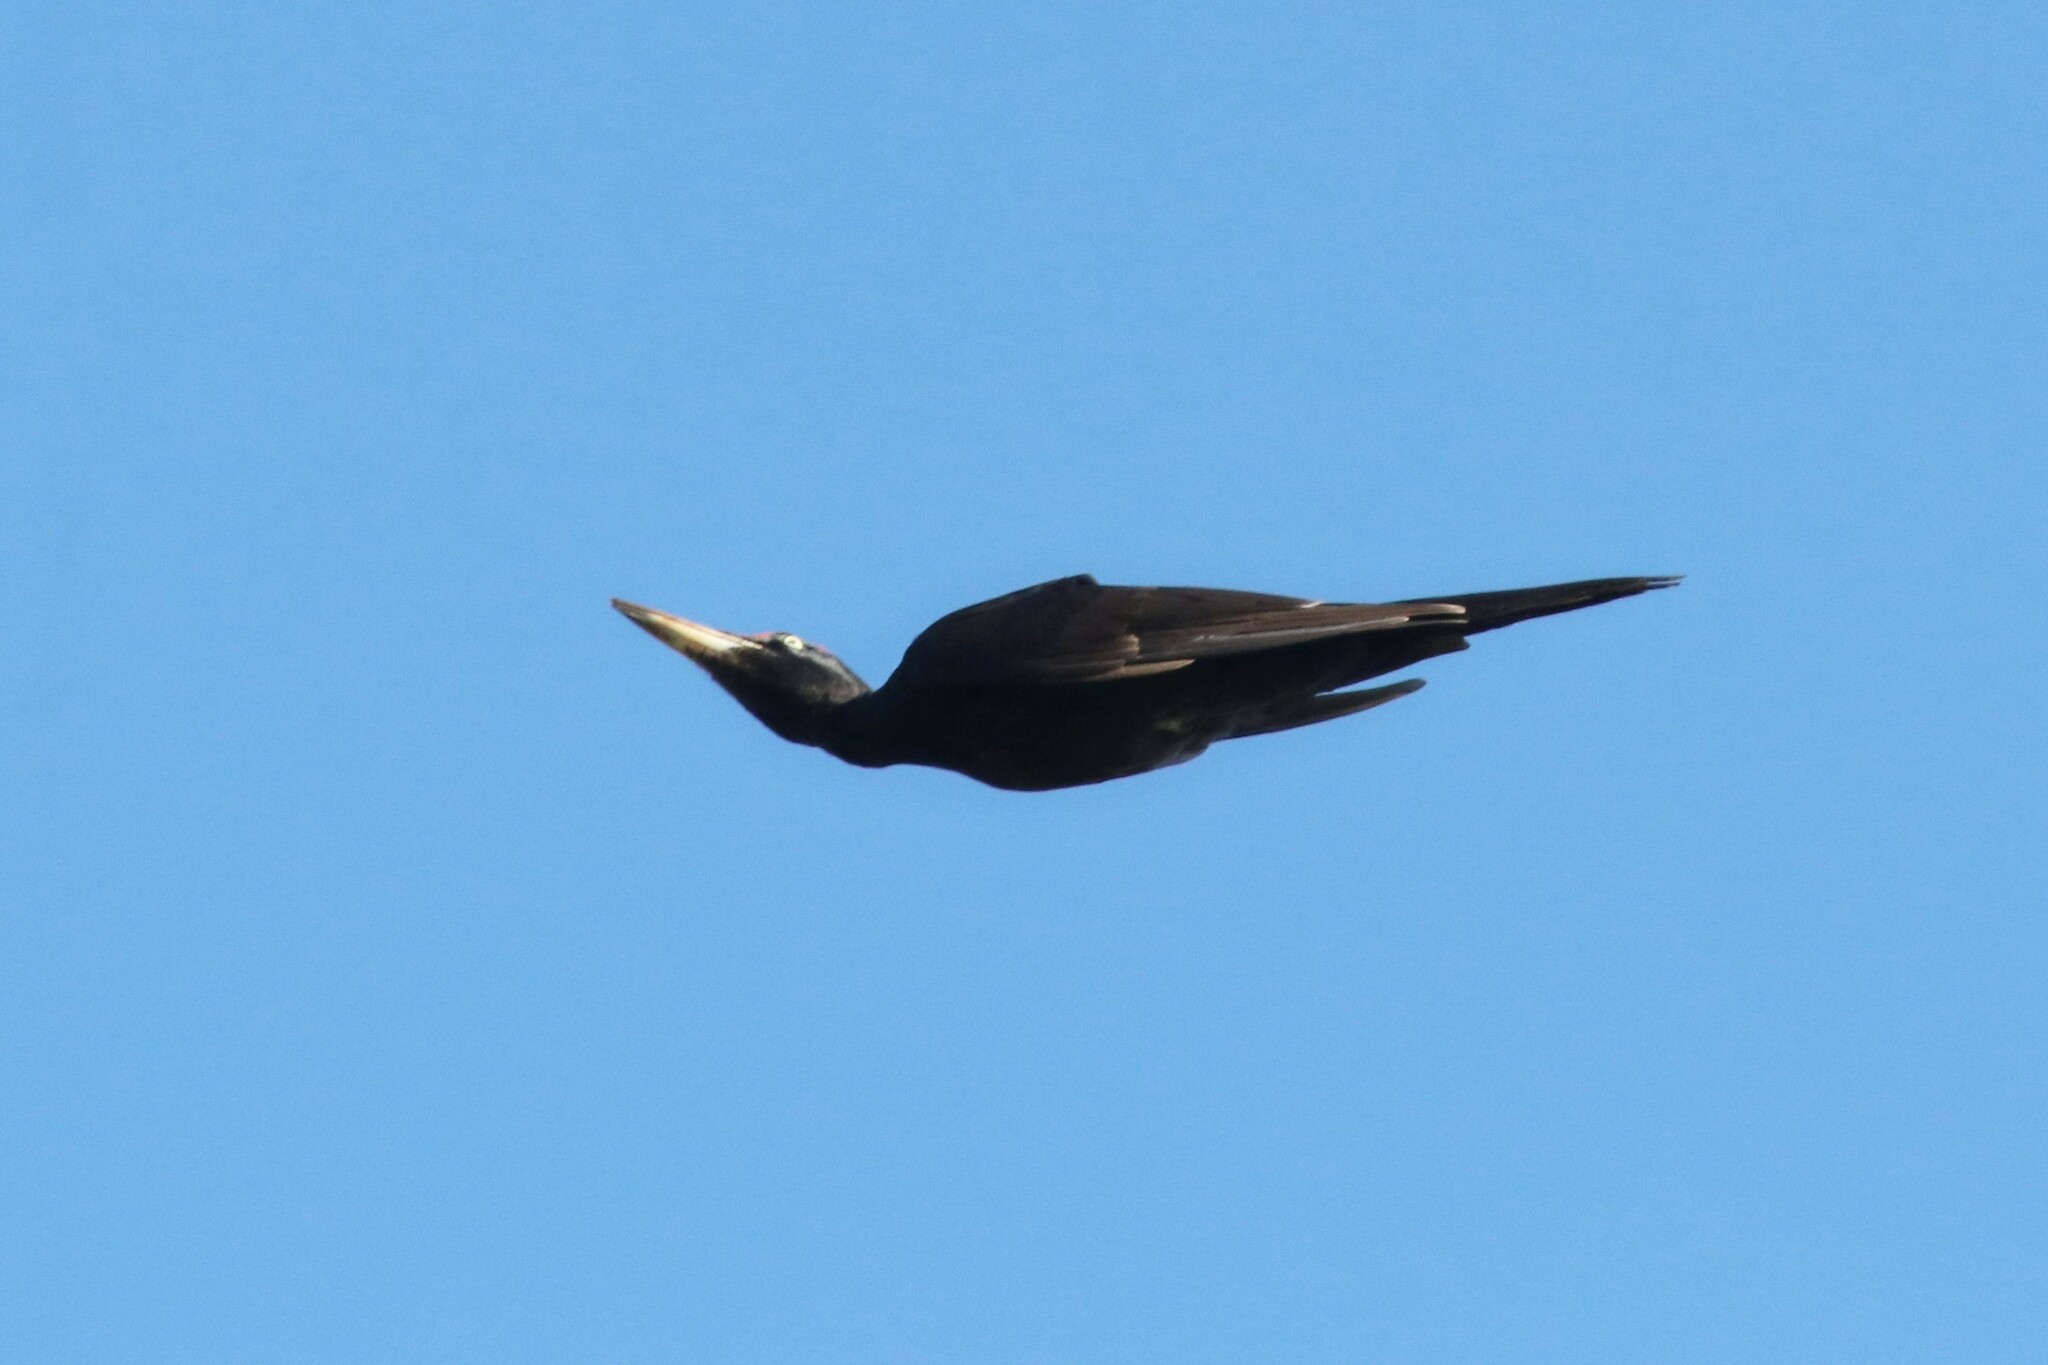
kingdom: Animalia
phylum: Chordata
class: Aves
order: Piciformes
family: Picidae
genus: Dryocopus
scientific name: Dryocopus martius
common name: Black woodpecker
